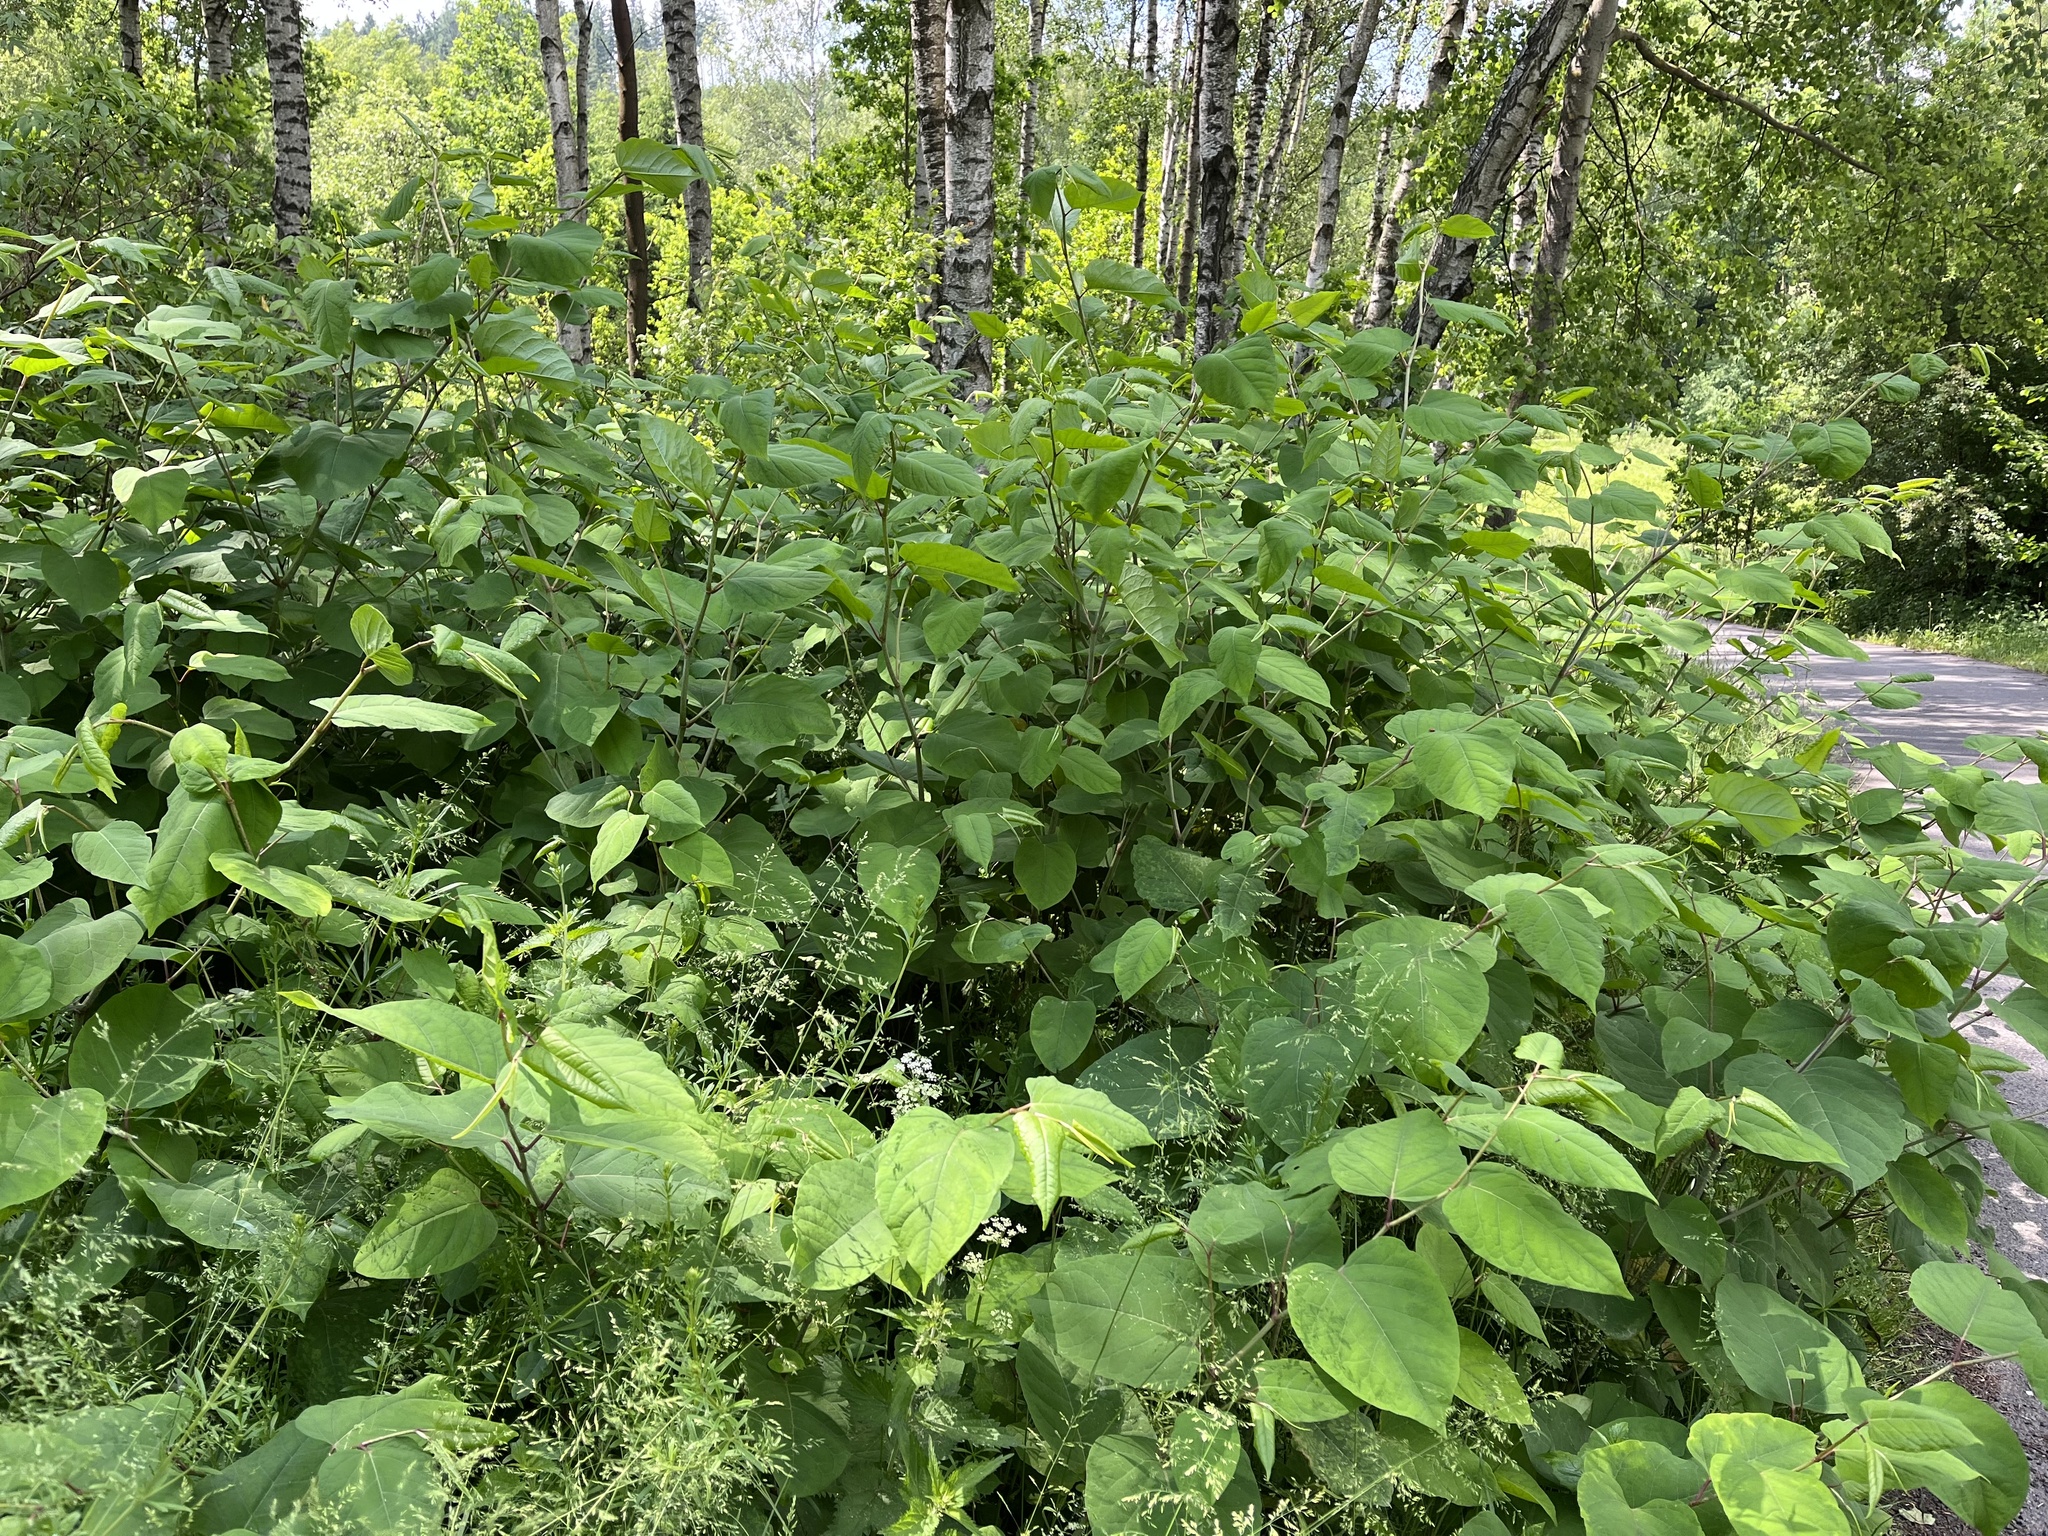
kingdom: Plantae
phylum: Tracheophyta
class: Magnoliopsida
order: Caryophyllales
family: Polygonaceae
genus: Reynoutria
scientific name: Reynoutria bohemica
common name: Bohemian knotweed
